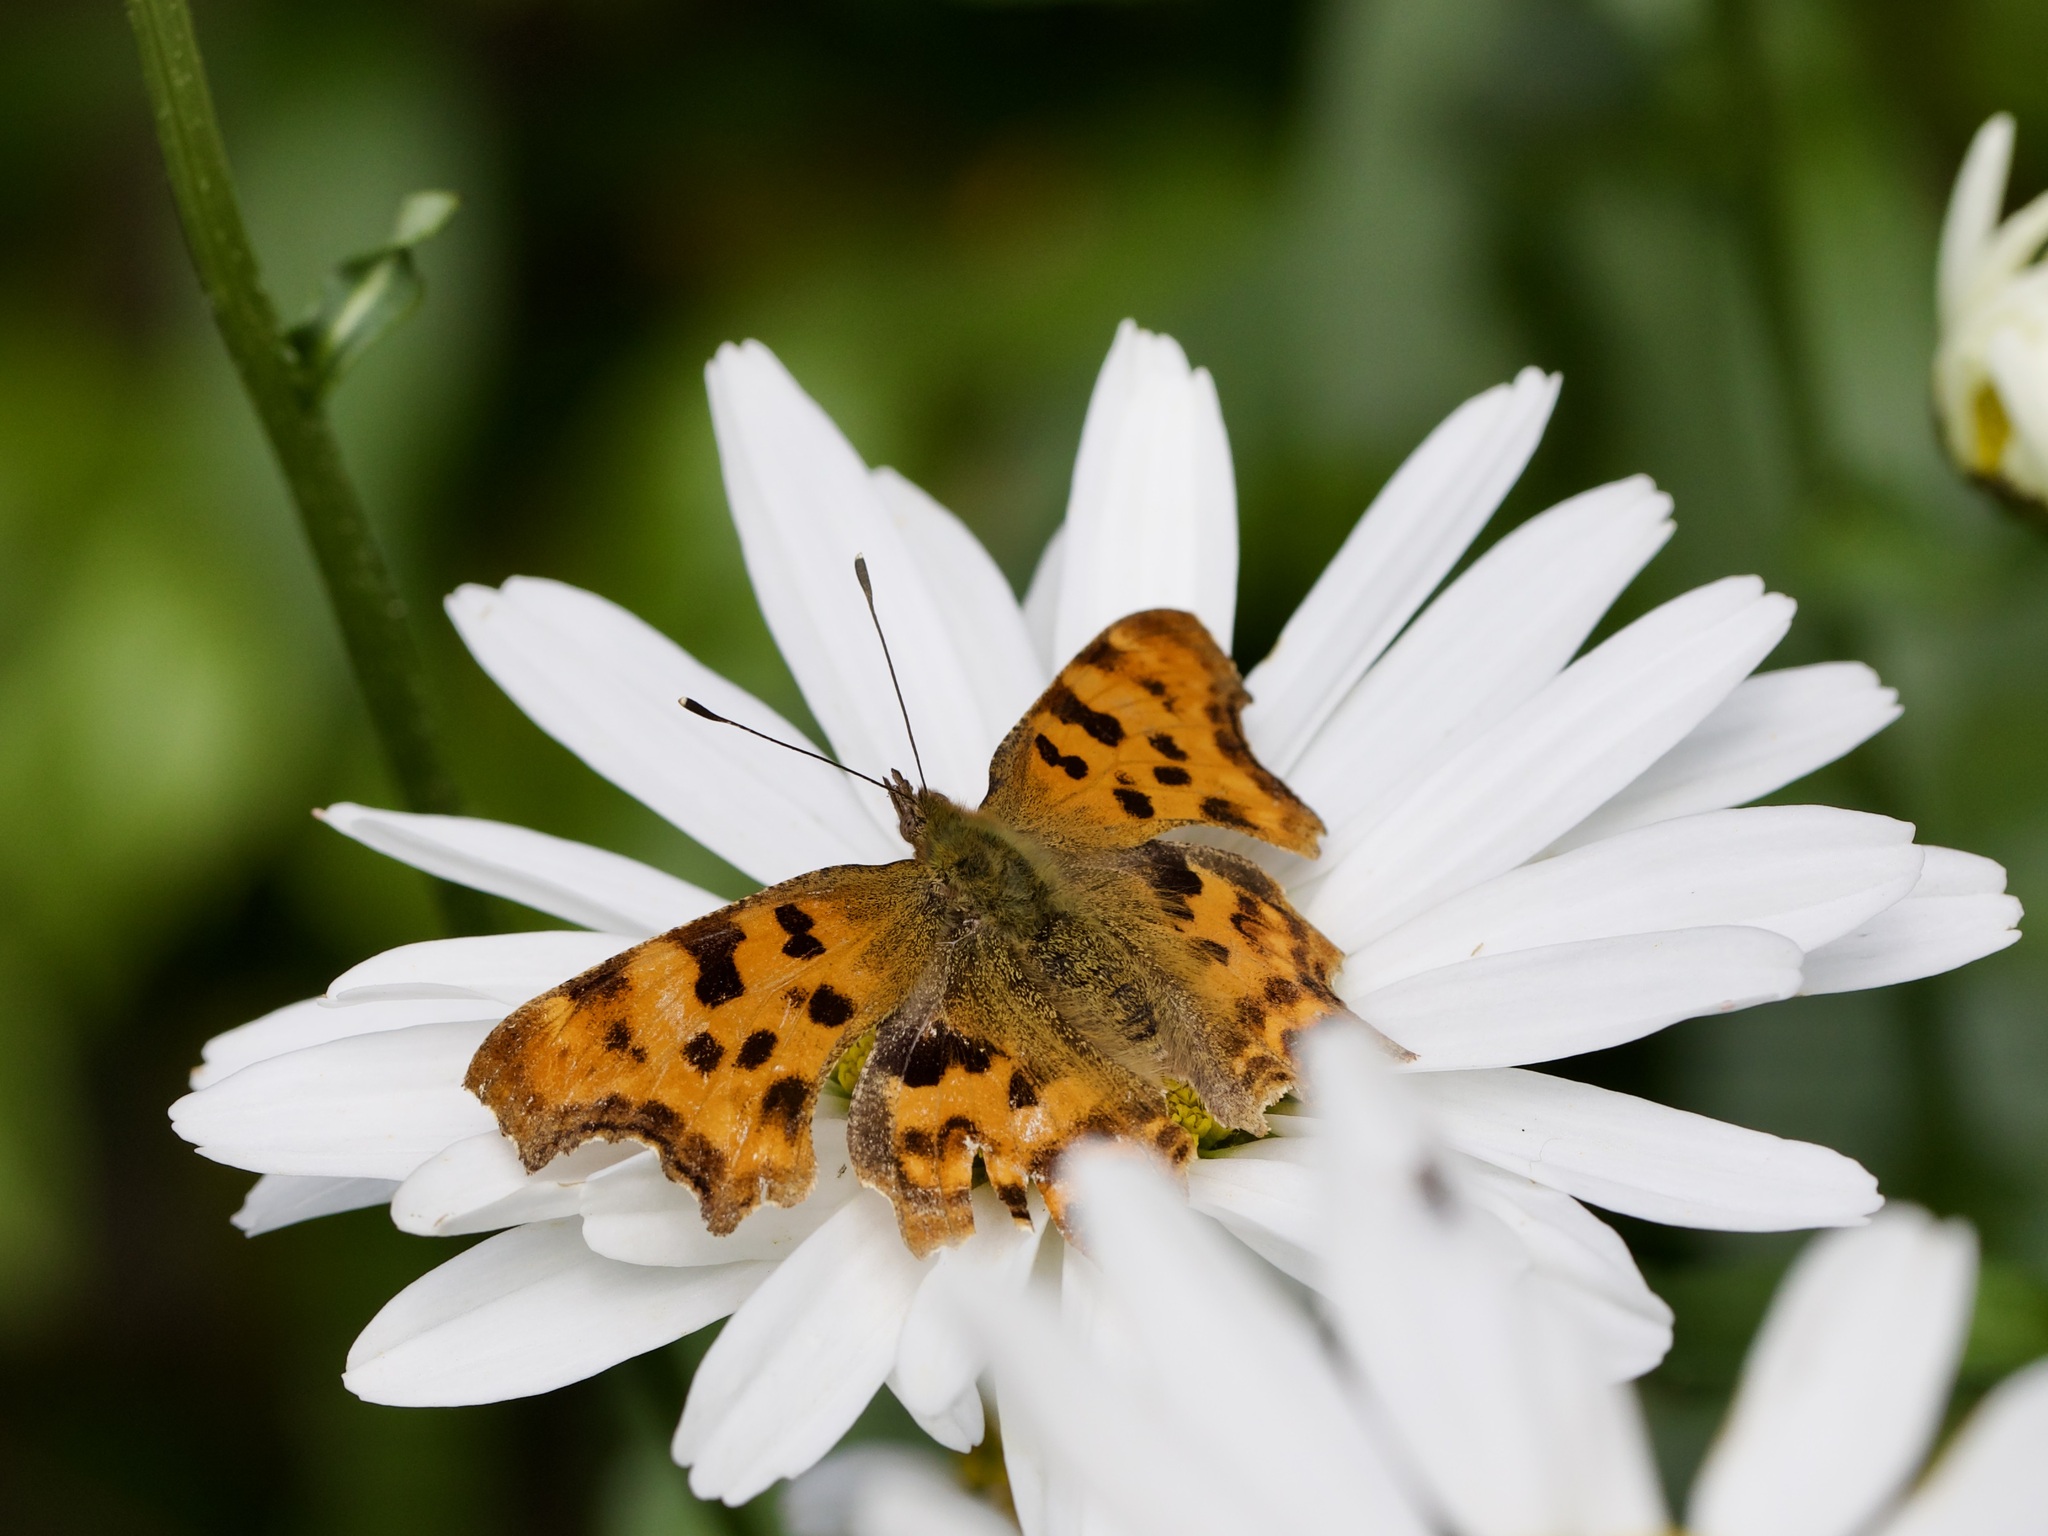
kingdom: Animalia
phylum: Arthropoda
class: Insecta
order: Lepidoptera
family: Nymphalidae
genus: Polygonia
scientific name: Polygonia c-album
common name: Comma
